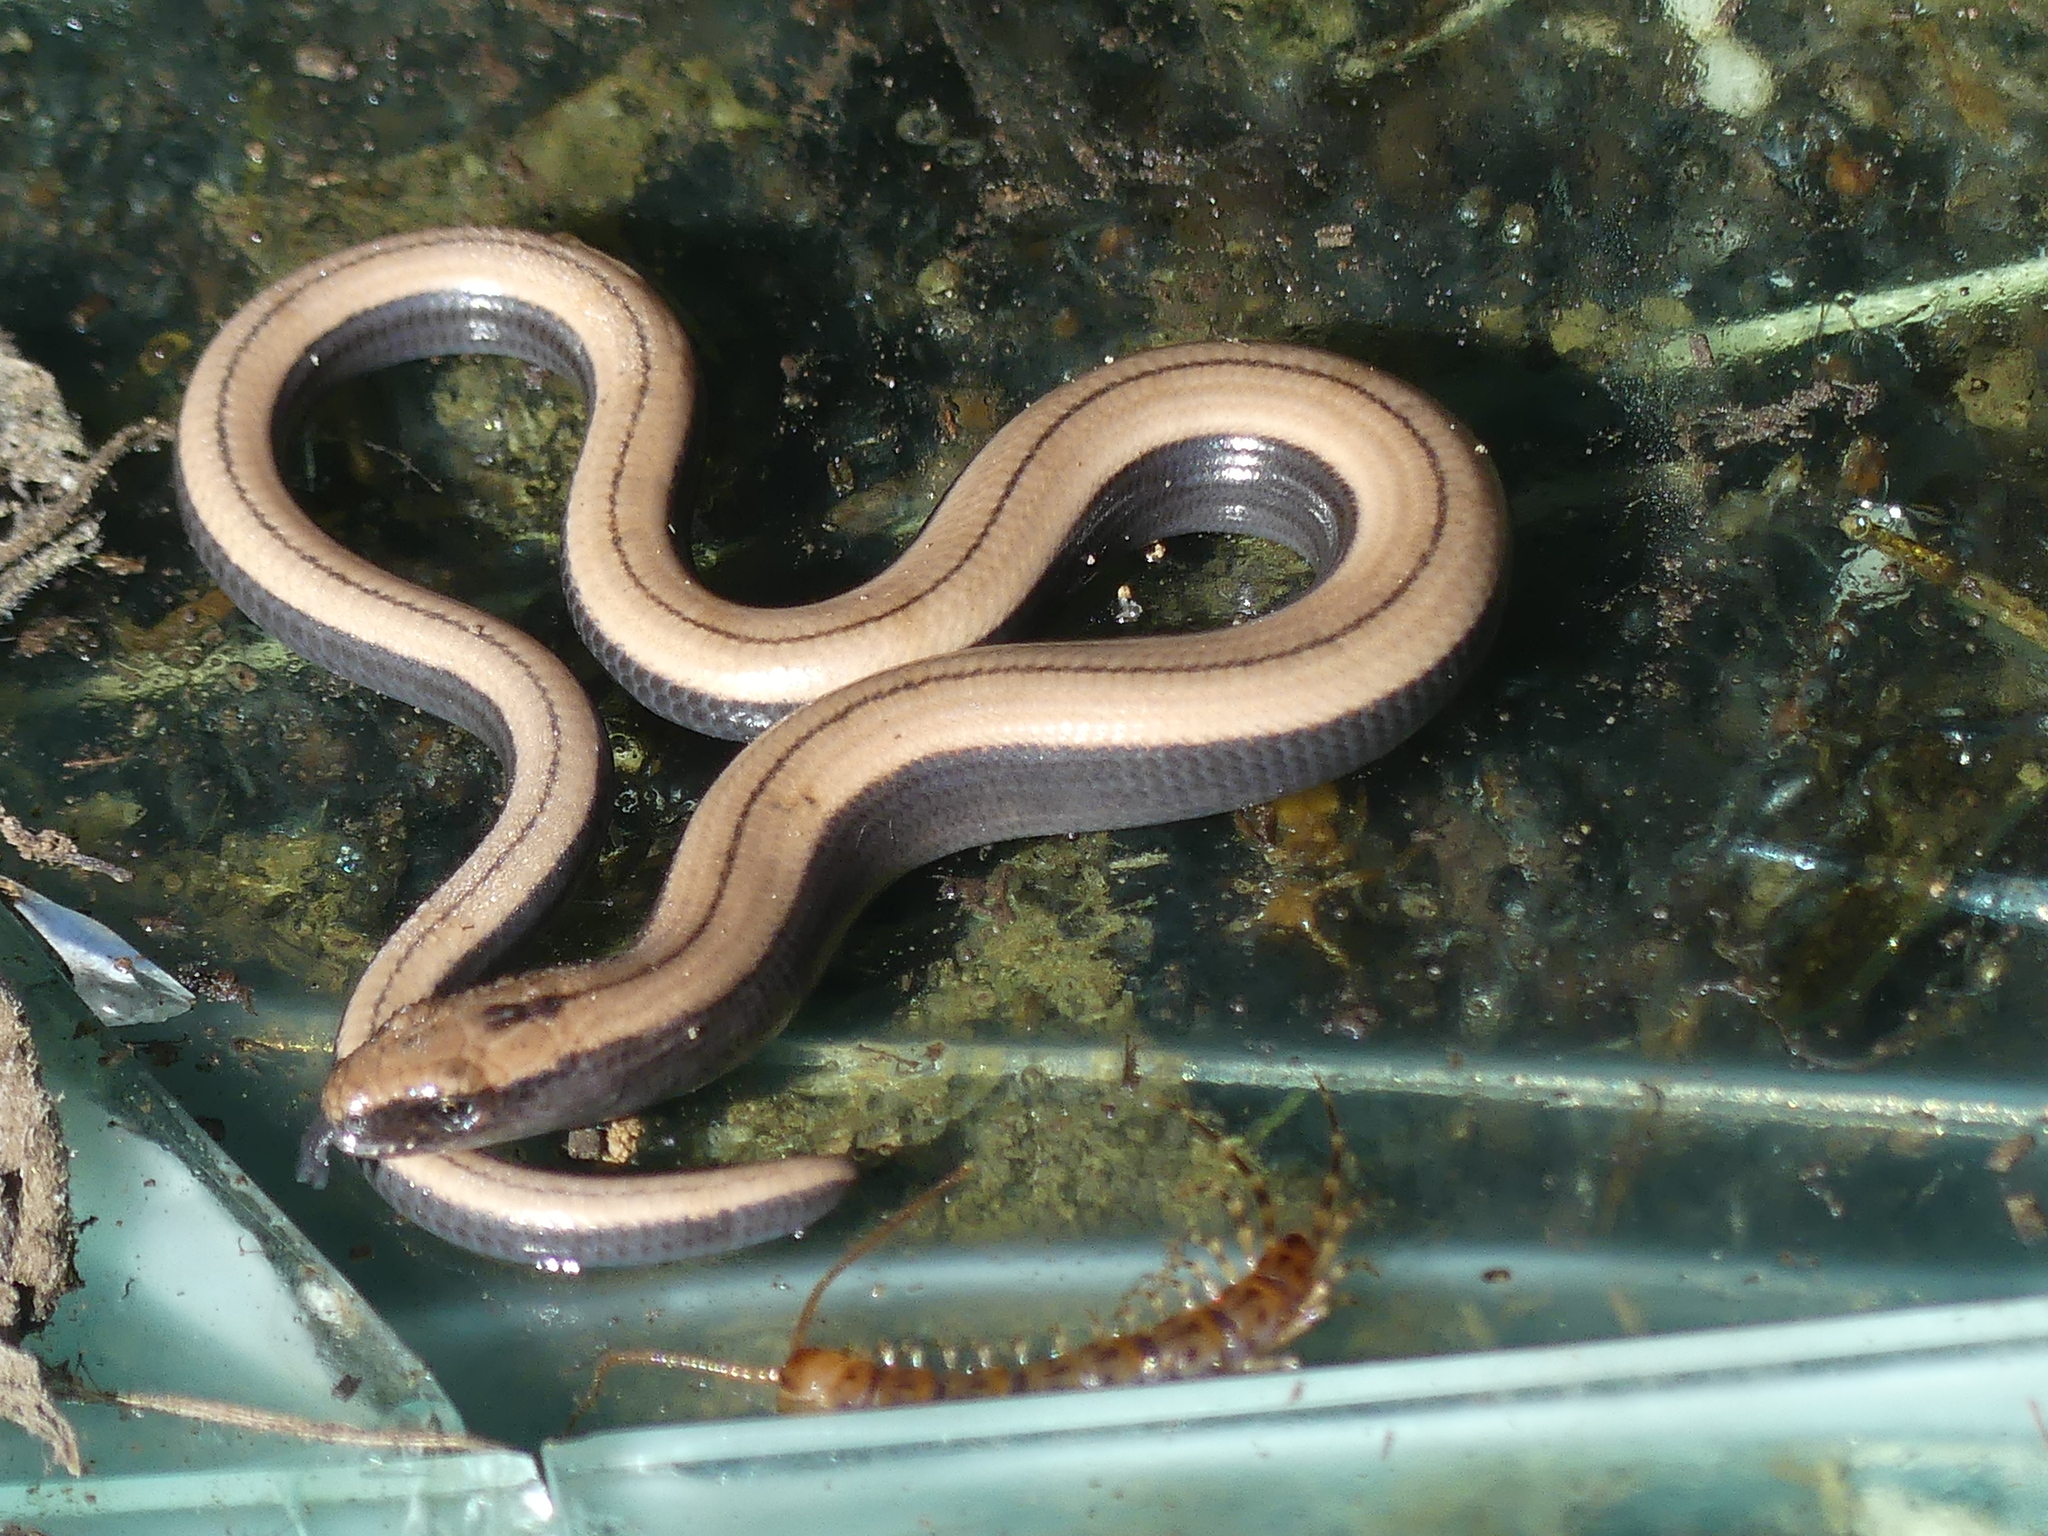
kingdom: Animalia
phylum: Chordata
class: Squamata
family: Anguidae
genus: Anguis
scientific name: Anguis fragilis
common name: Slow worm
